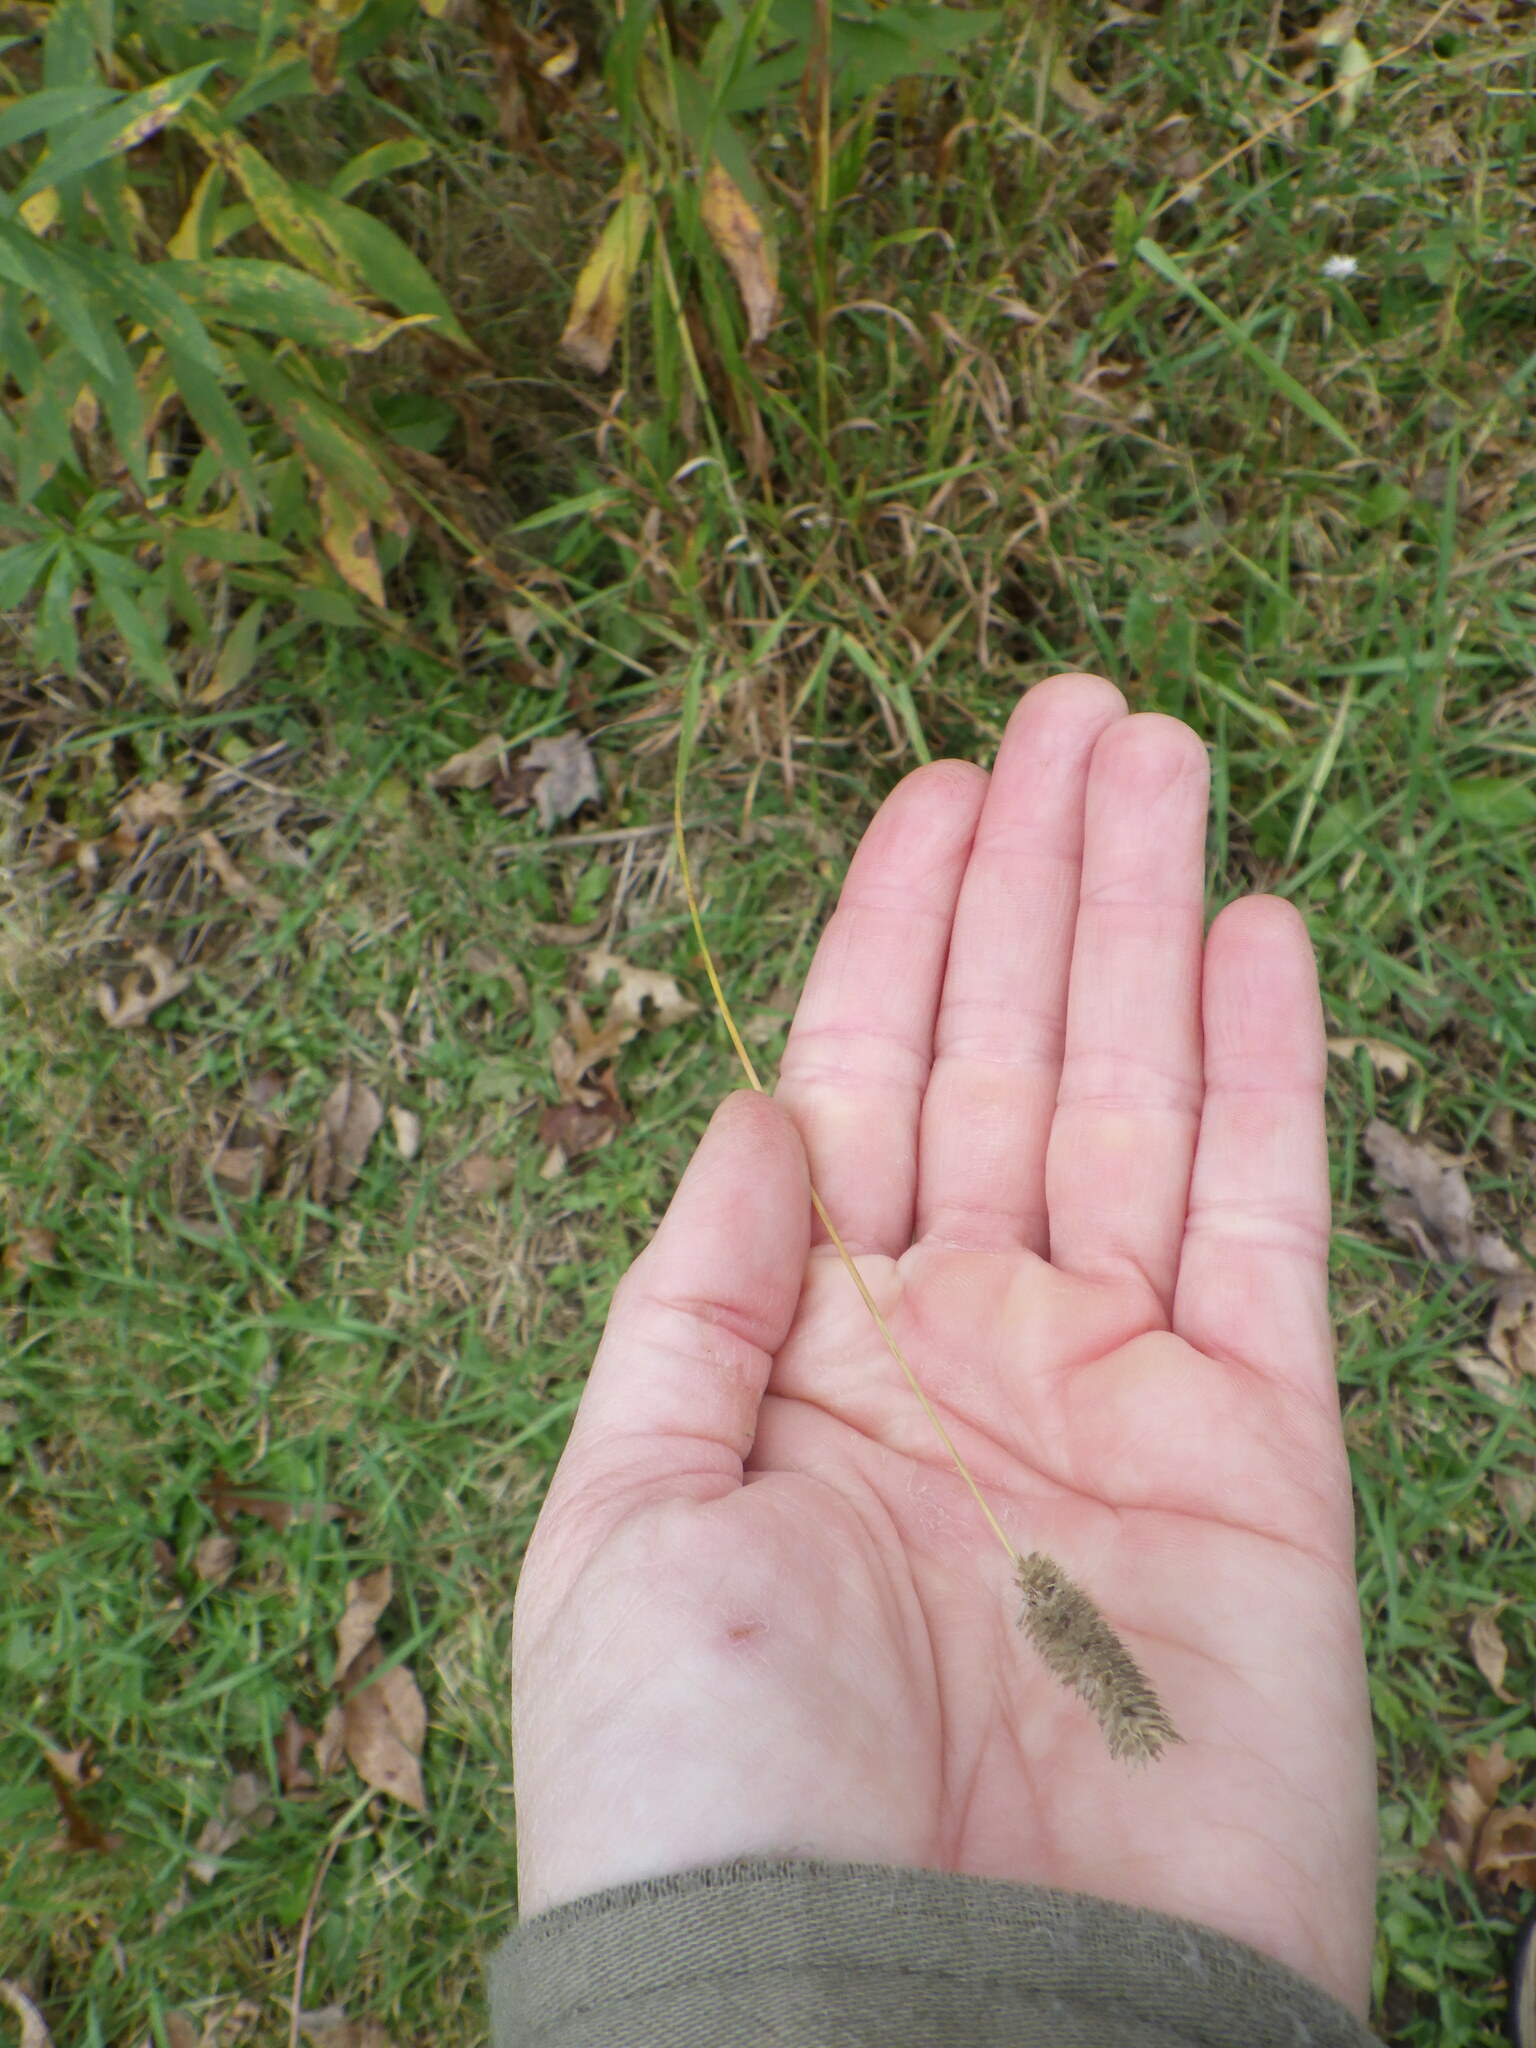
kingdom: Plantae
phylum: Tracheophyta
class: Liliopsida
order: Poales
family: Poaceae
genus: Phleum
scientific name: Phleum pratense
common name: Timothy grass
